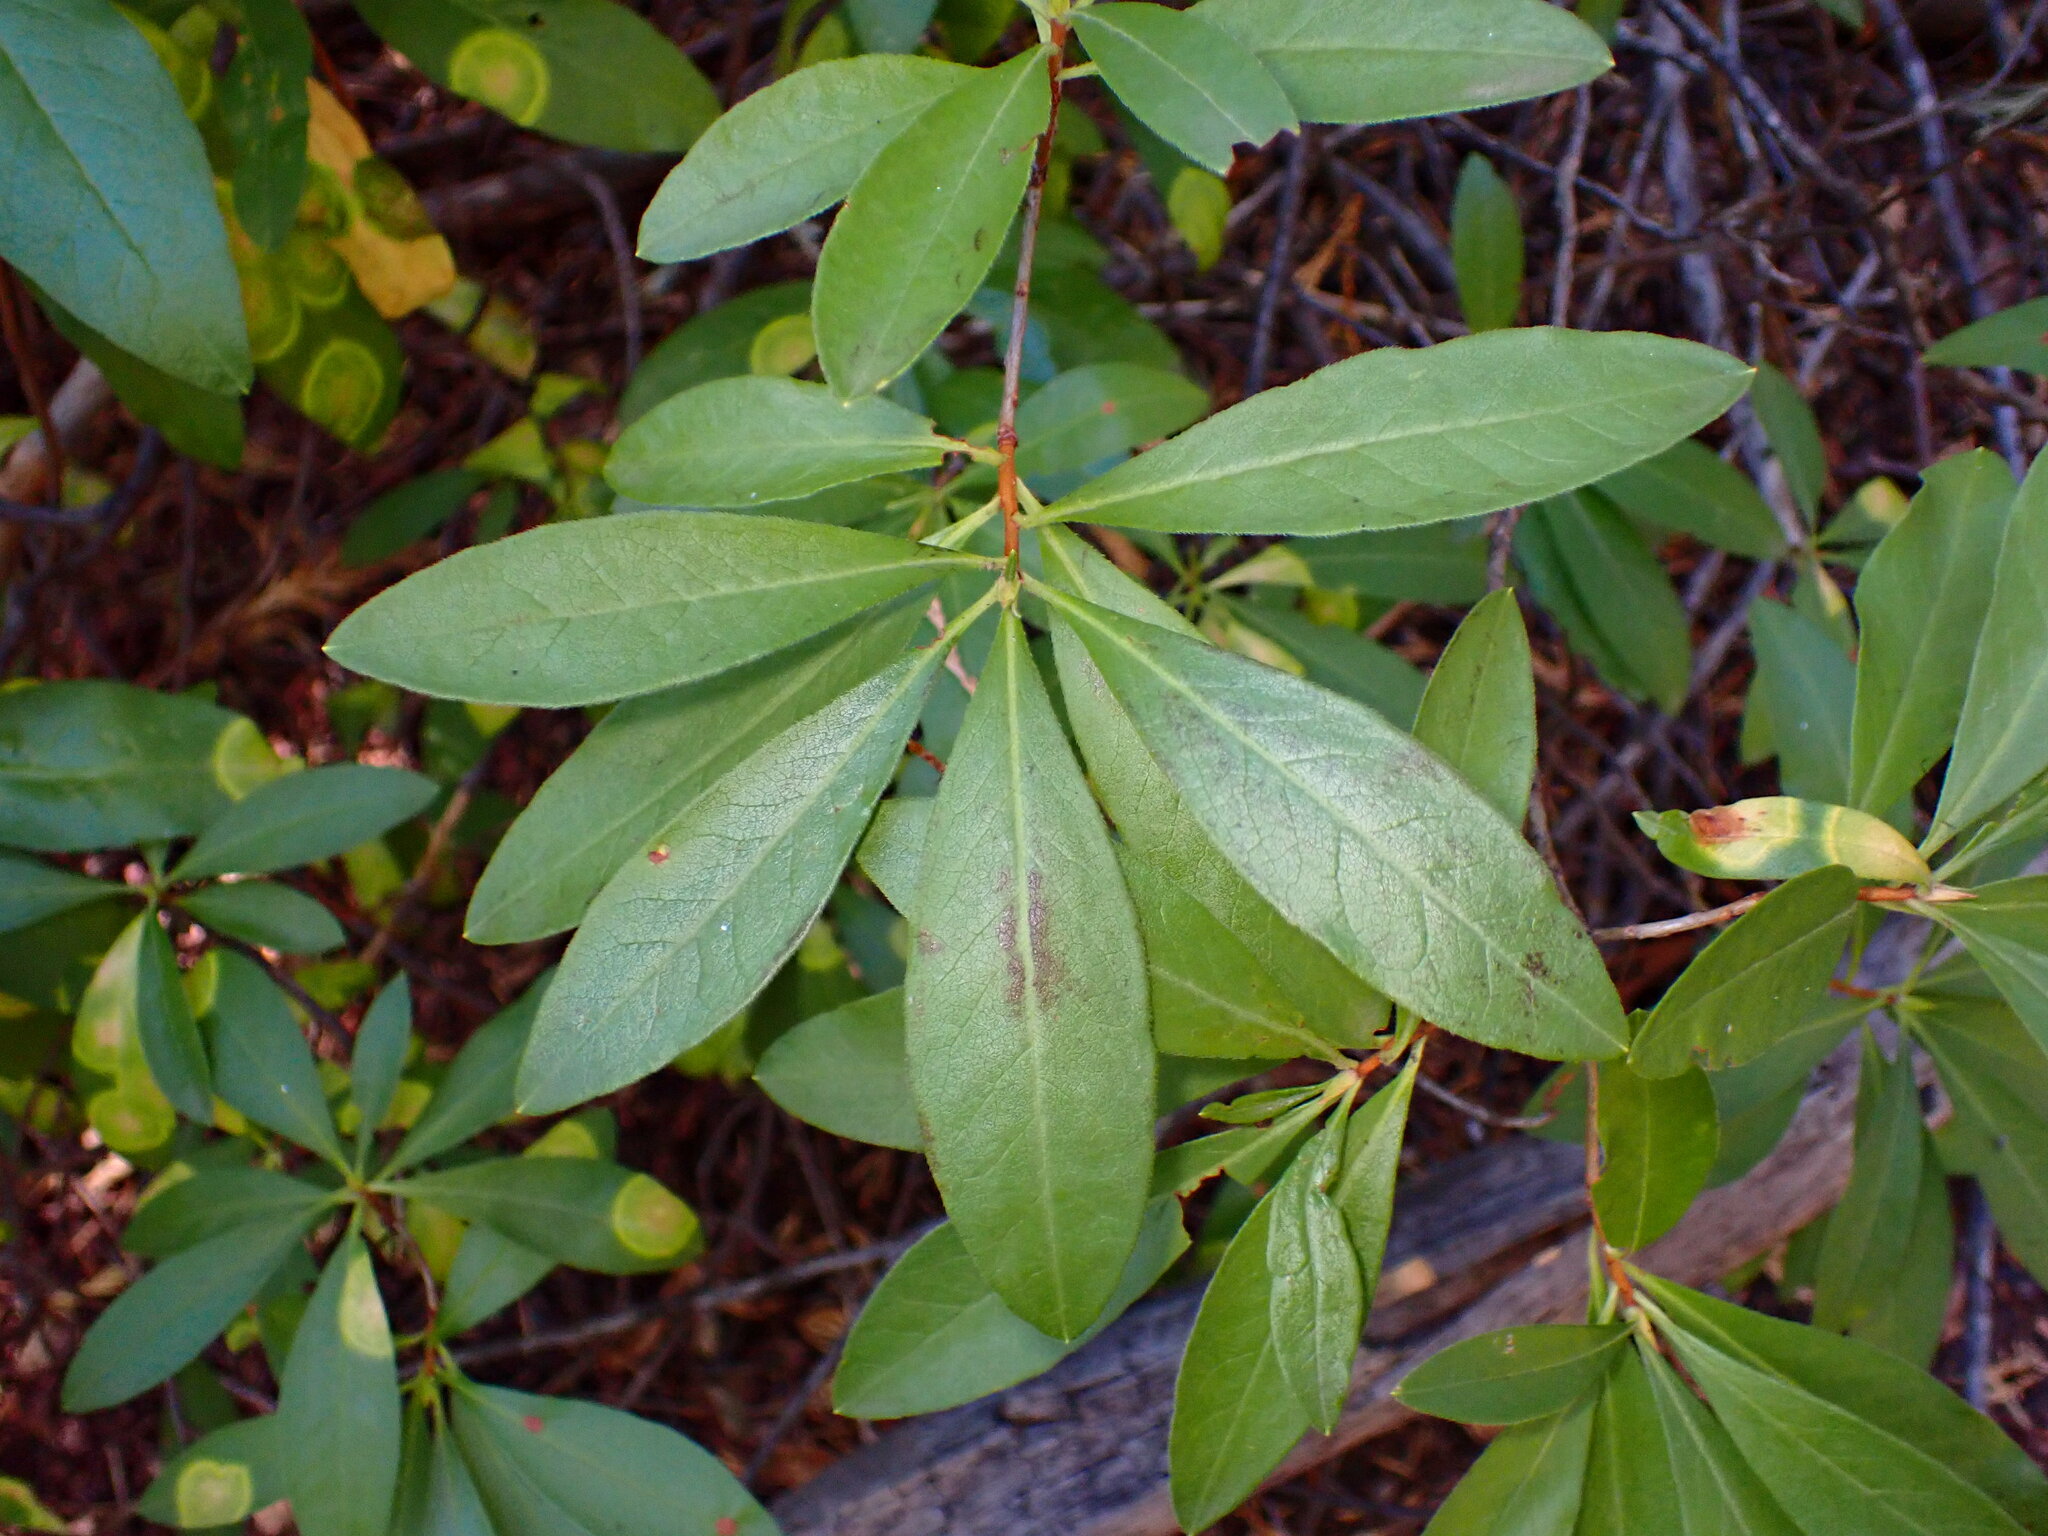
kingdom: Plantae
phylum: Tracheophyta
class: Magnoliopsida
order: Ericales
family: Ericaceae
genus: Rhododendron
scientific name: Rhododendron occidentale
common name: Western azalea
